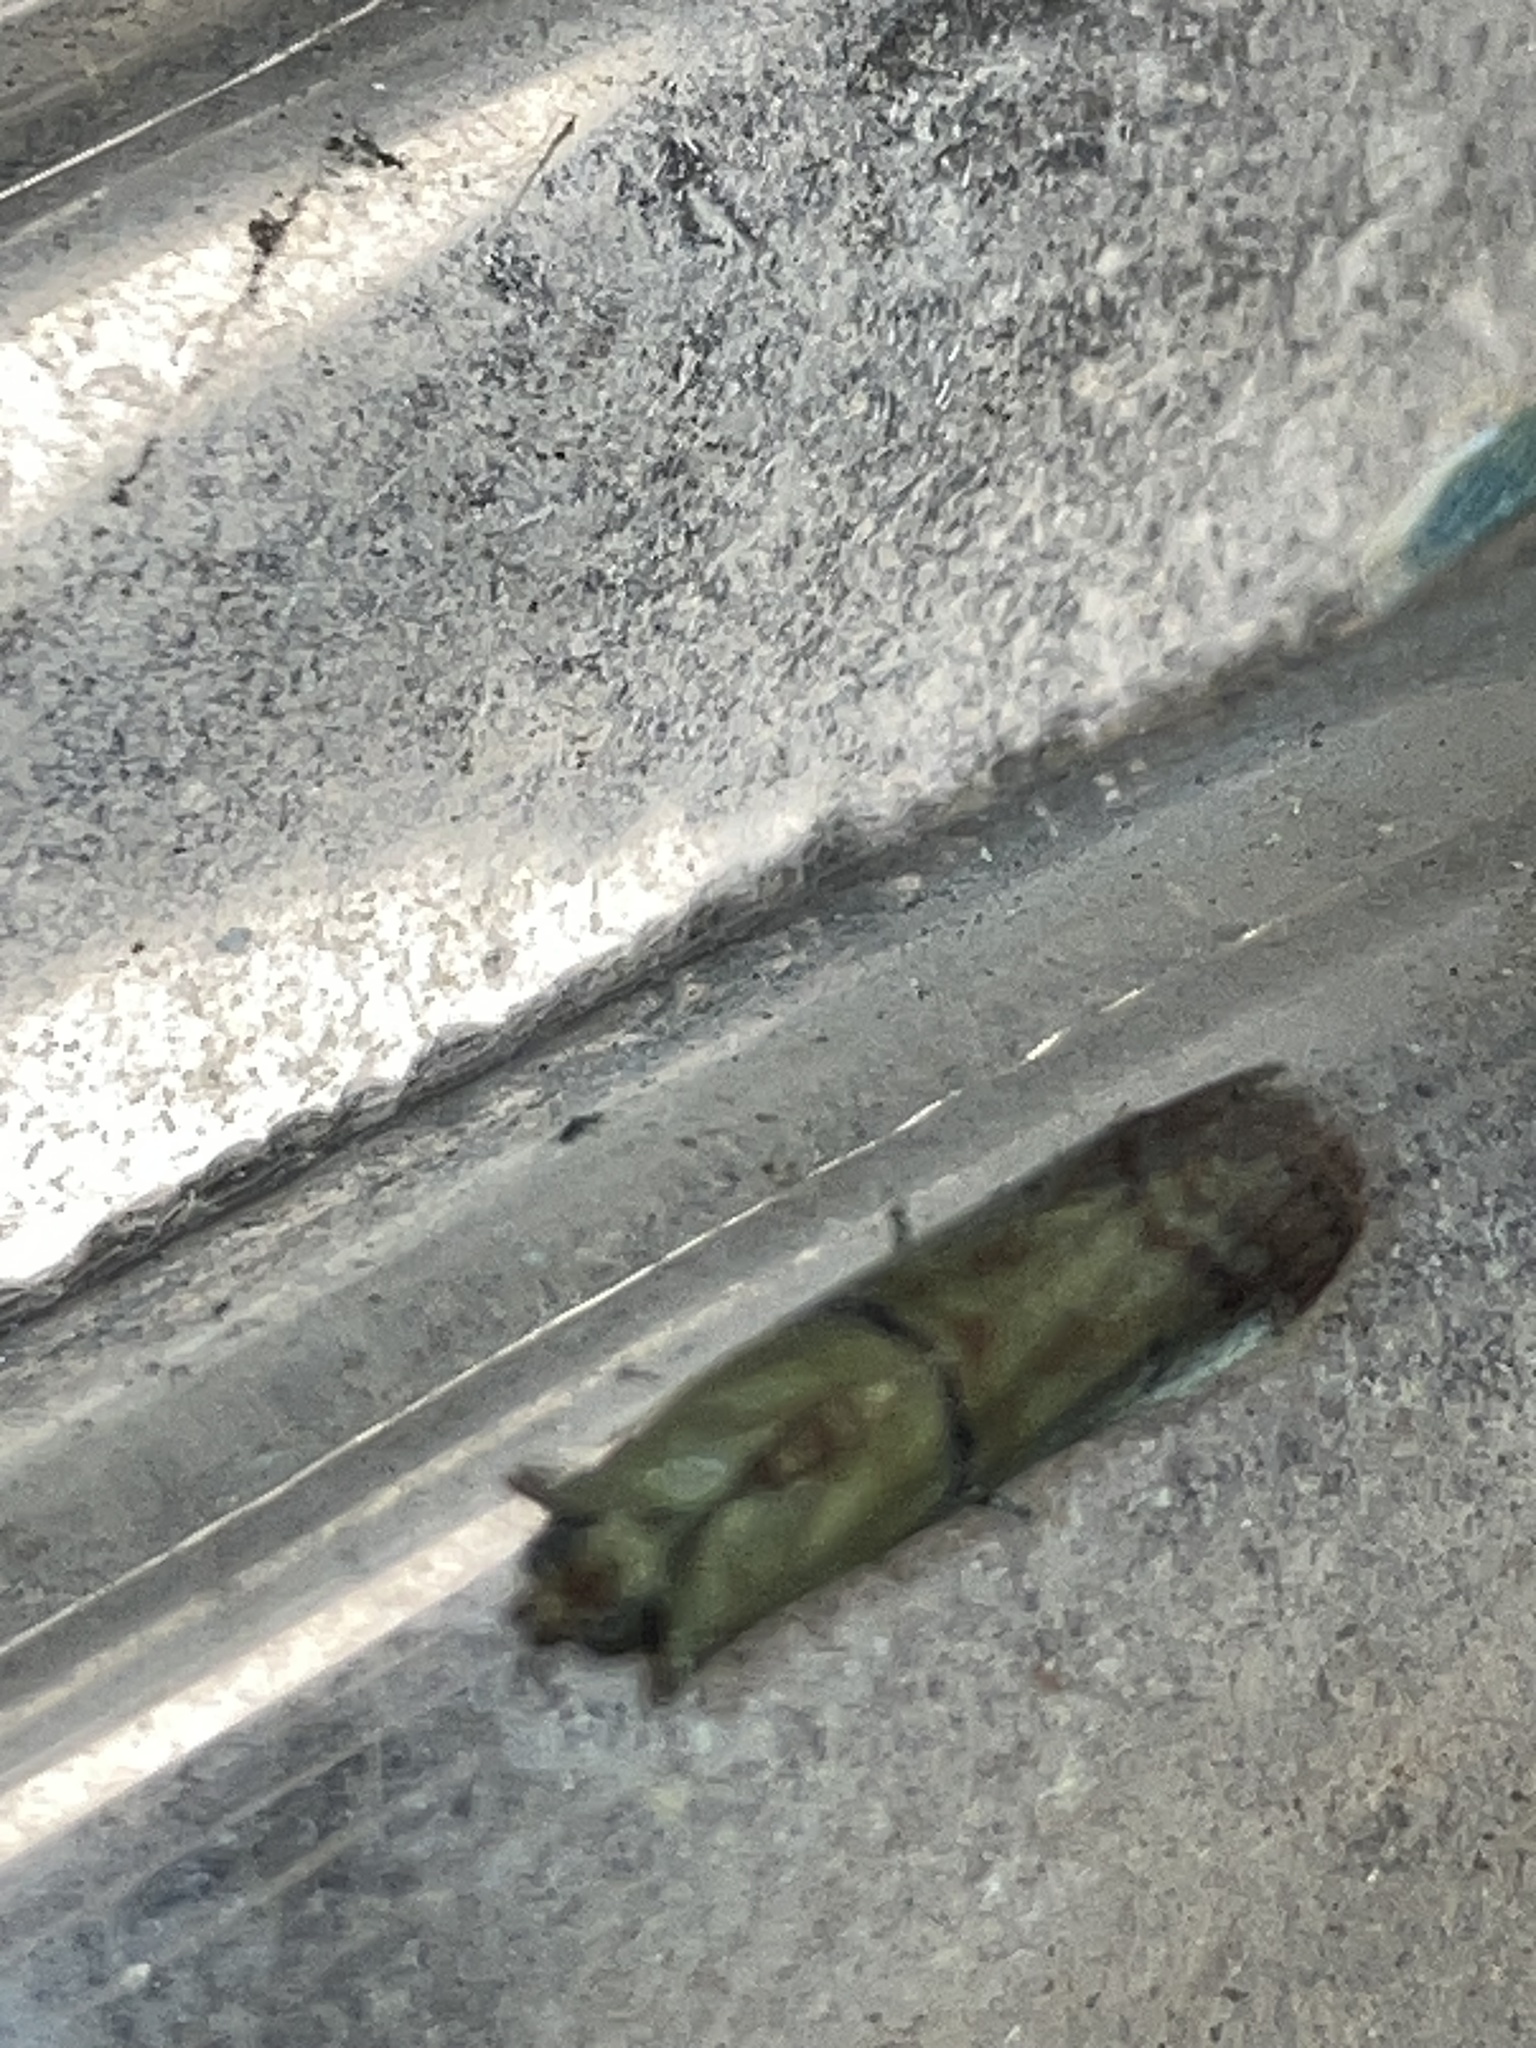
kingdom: Animalia
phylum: Arthropoda
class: Insecta
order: Lepidoptera
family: Pyralidae
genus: Atheloca
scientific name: Atheloca subrufella
